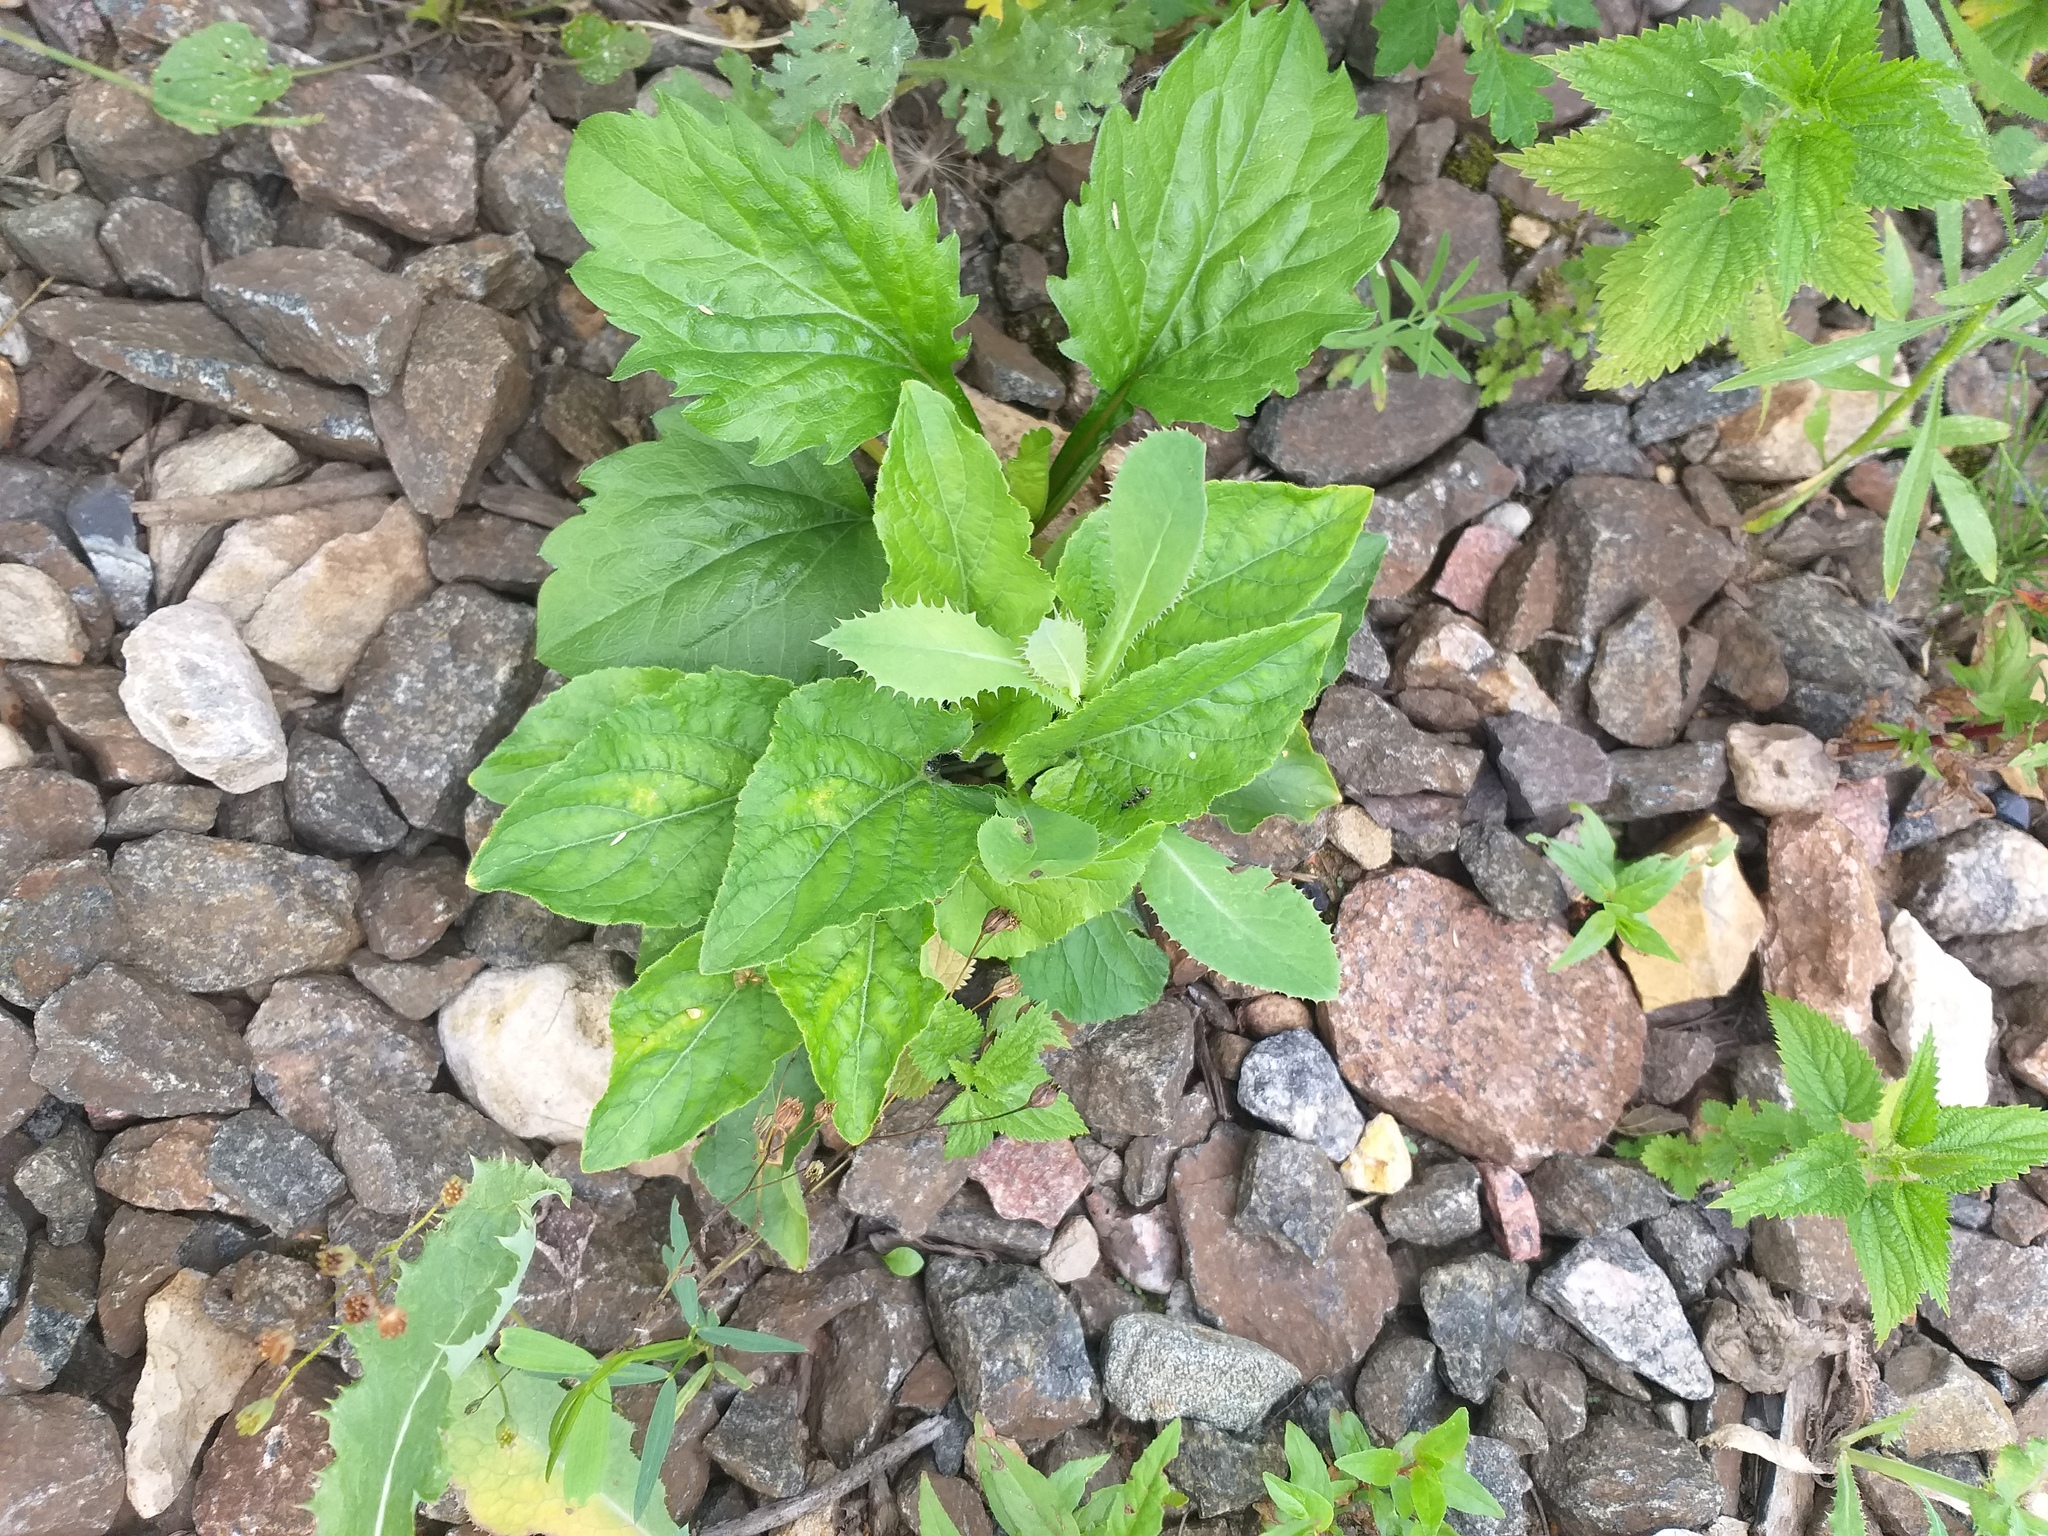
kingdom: Plantae
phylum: Tracheophyta
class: Magnoliopsida
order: Malpighiales
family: Violaceae
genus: Viola
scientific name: Viola hirta
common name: Hairy violet
